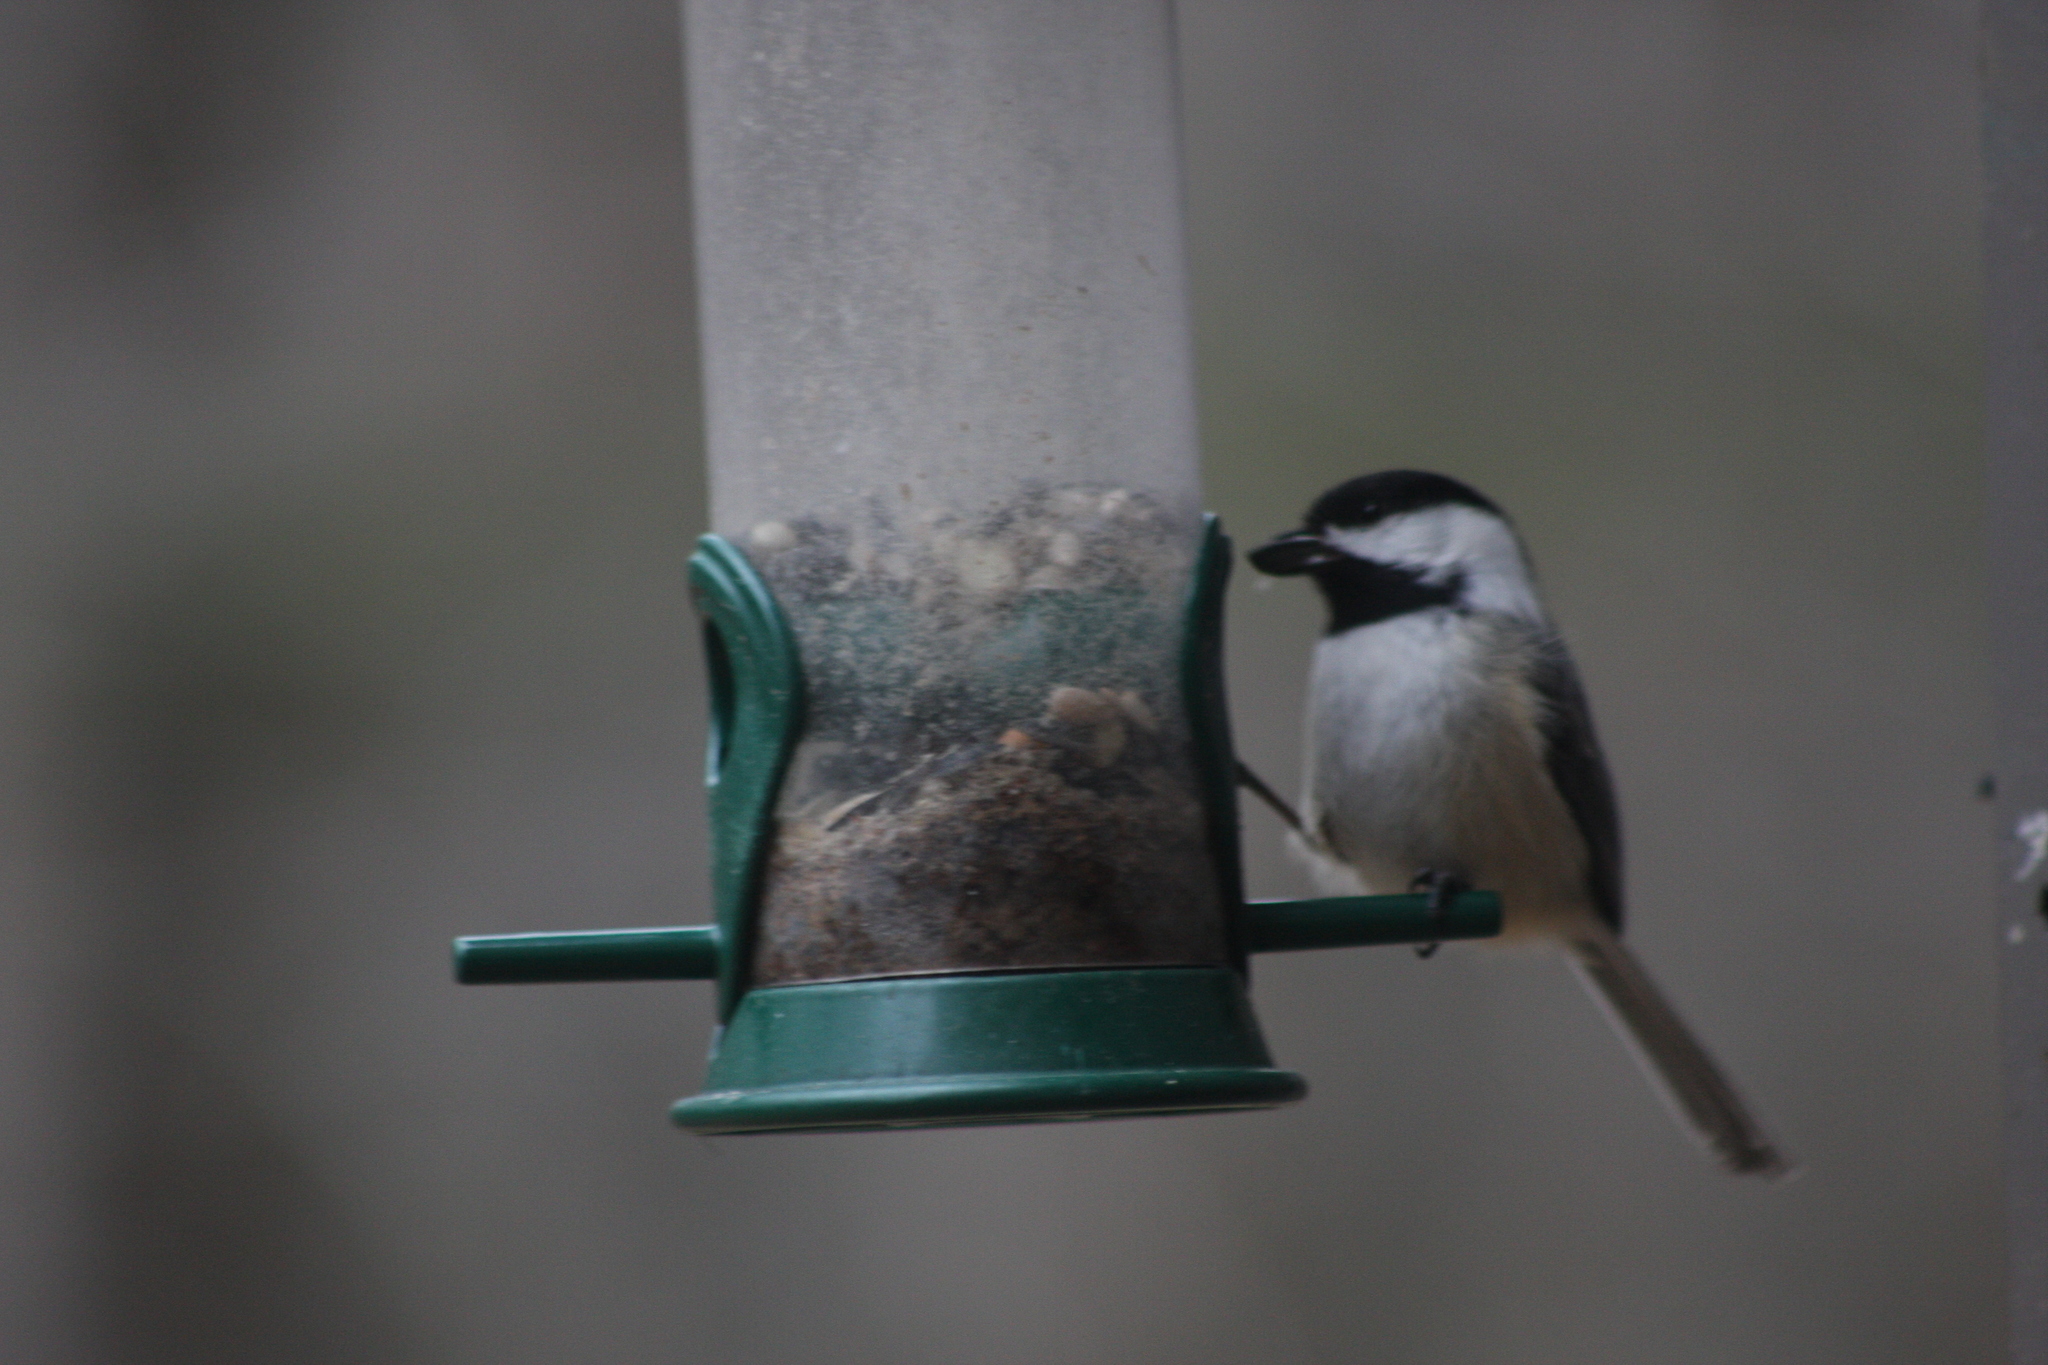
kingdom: Animalia
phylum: Chordata
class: Aves
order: Passeriformes
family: Paridae
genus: Poecile
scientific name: Poecile atricapillus
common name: Black-capped chickadee
